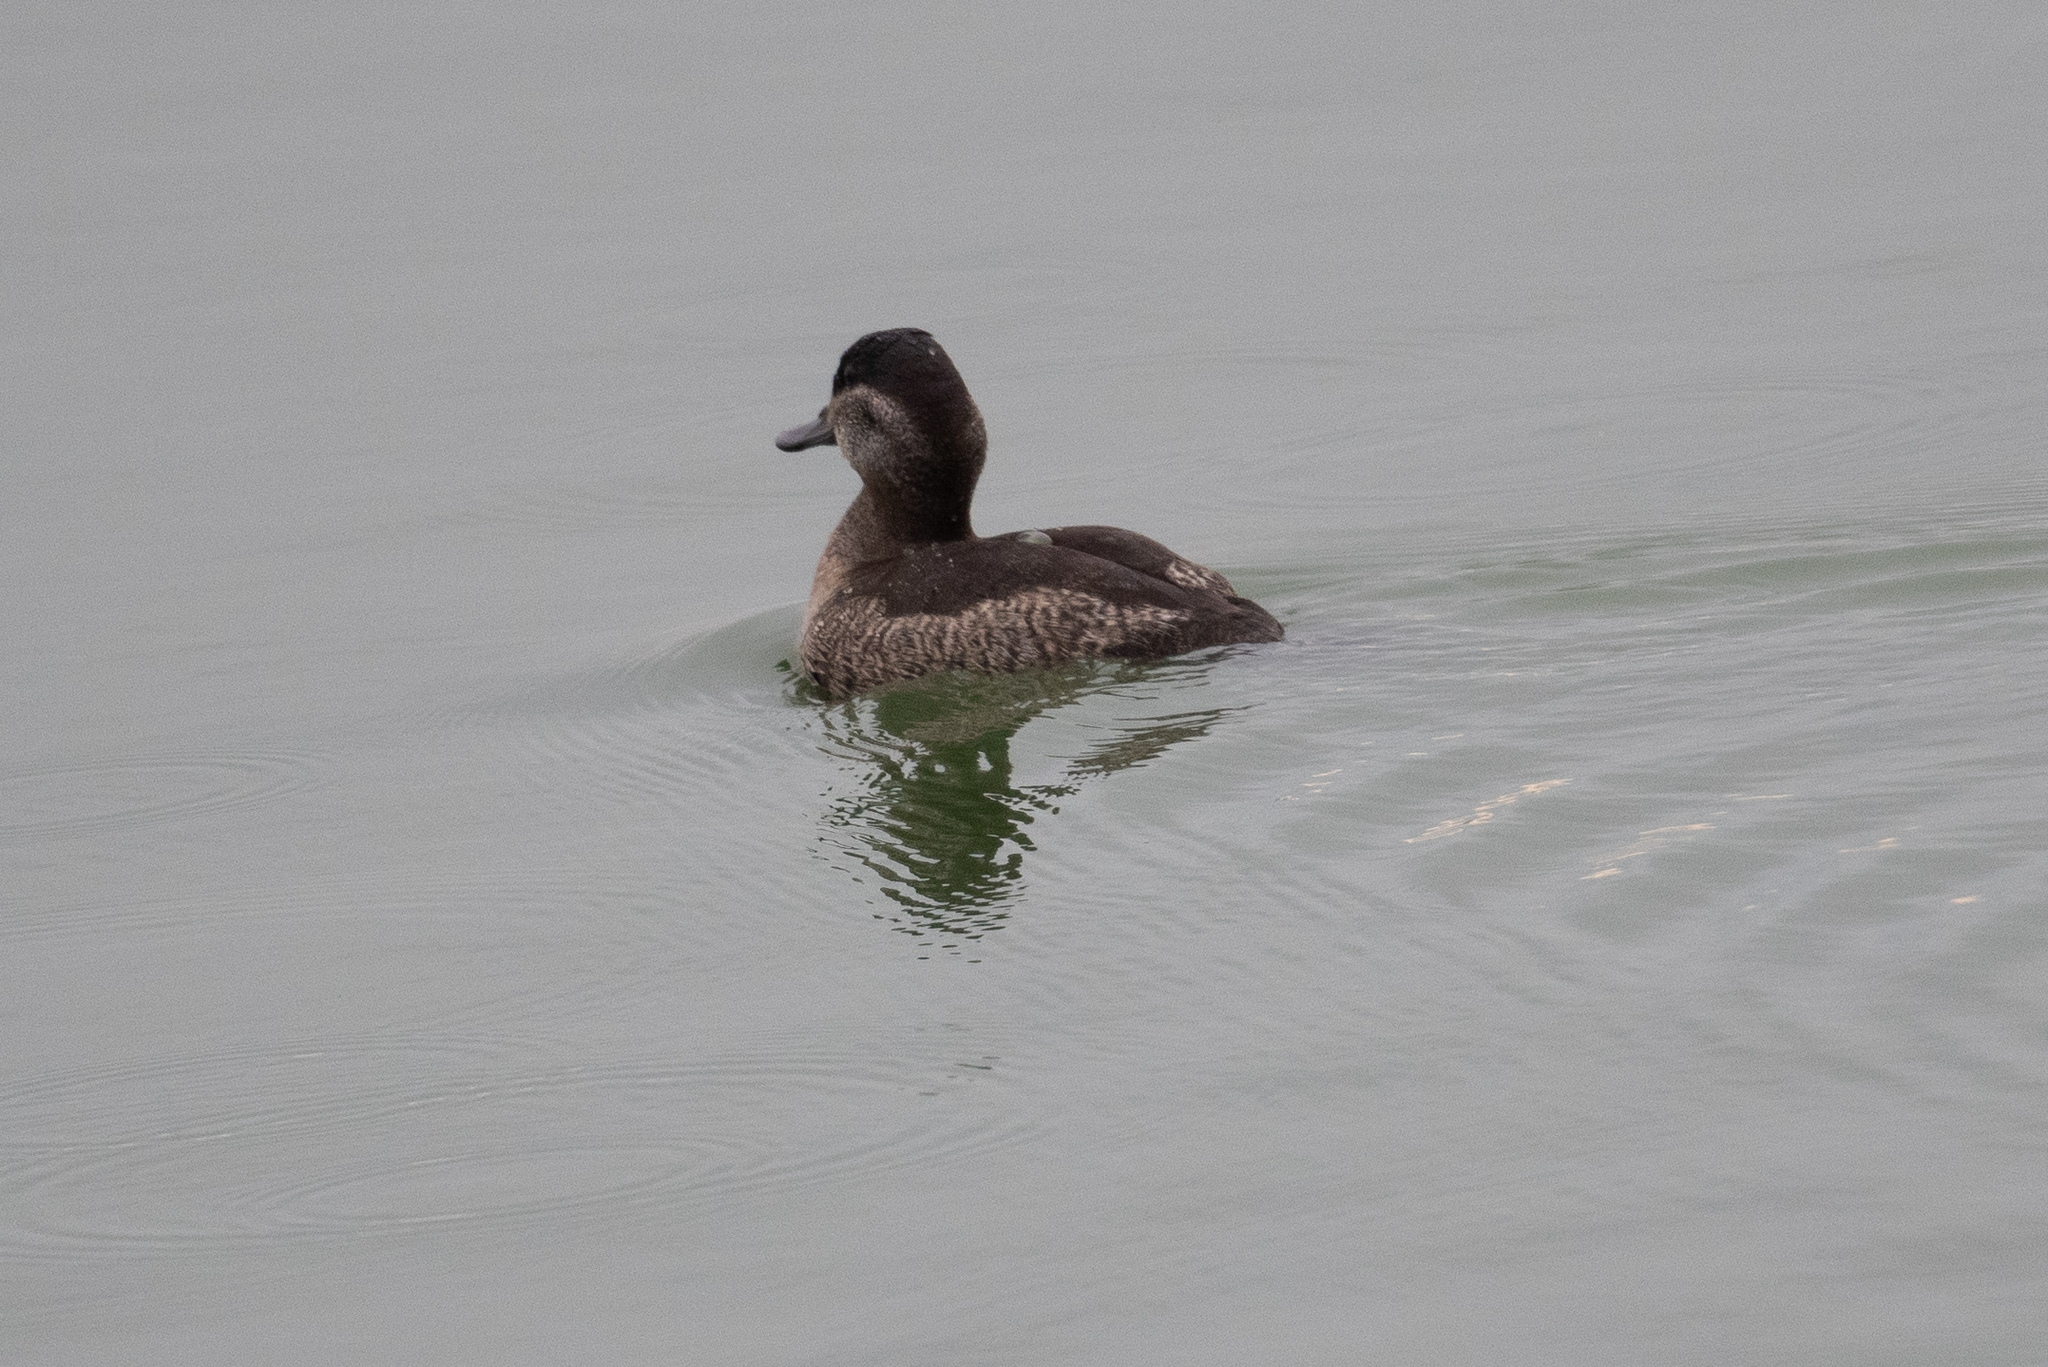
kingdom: Animalia
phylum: Chordata
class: Aves
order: Anseriformes
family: Anatidae
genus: Oxyura
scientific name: Oxyura jamaicensis
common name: Ruddy duck
